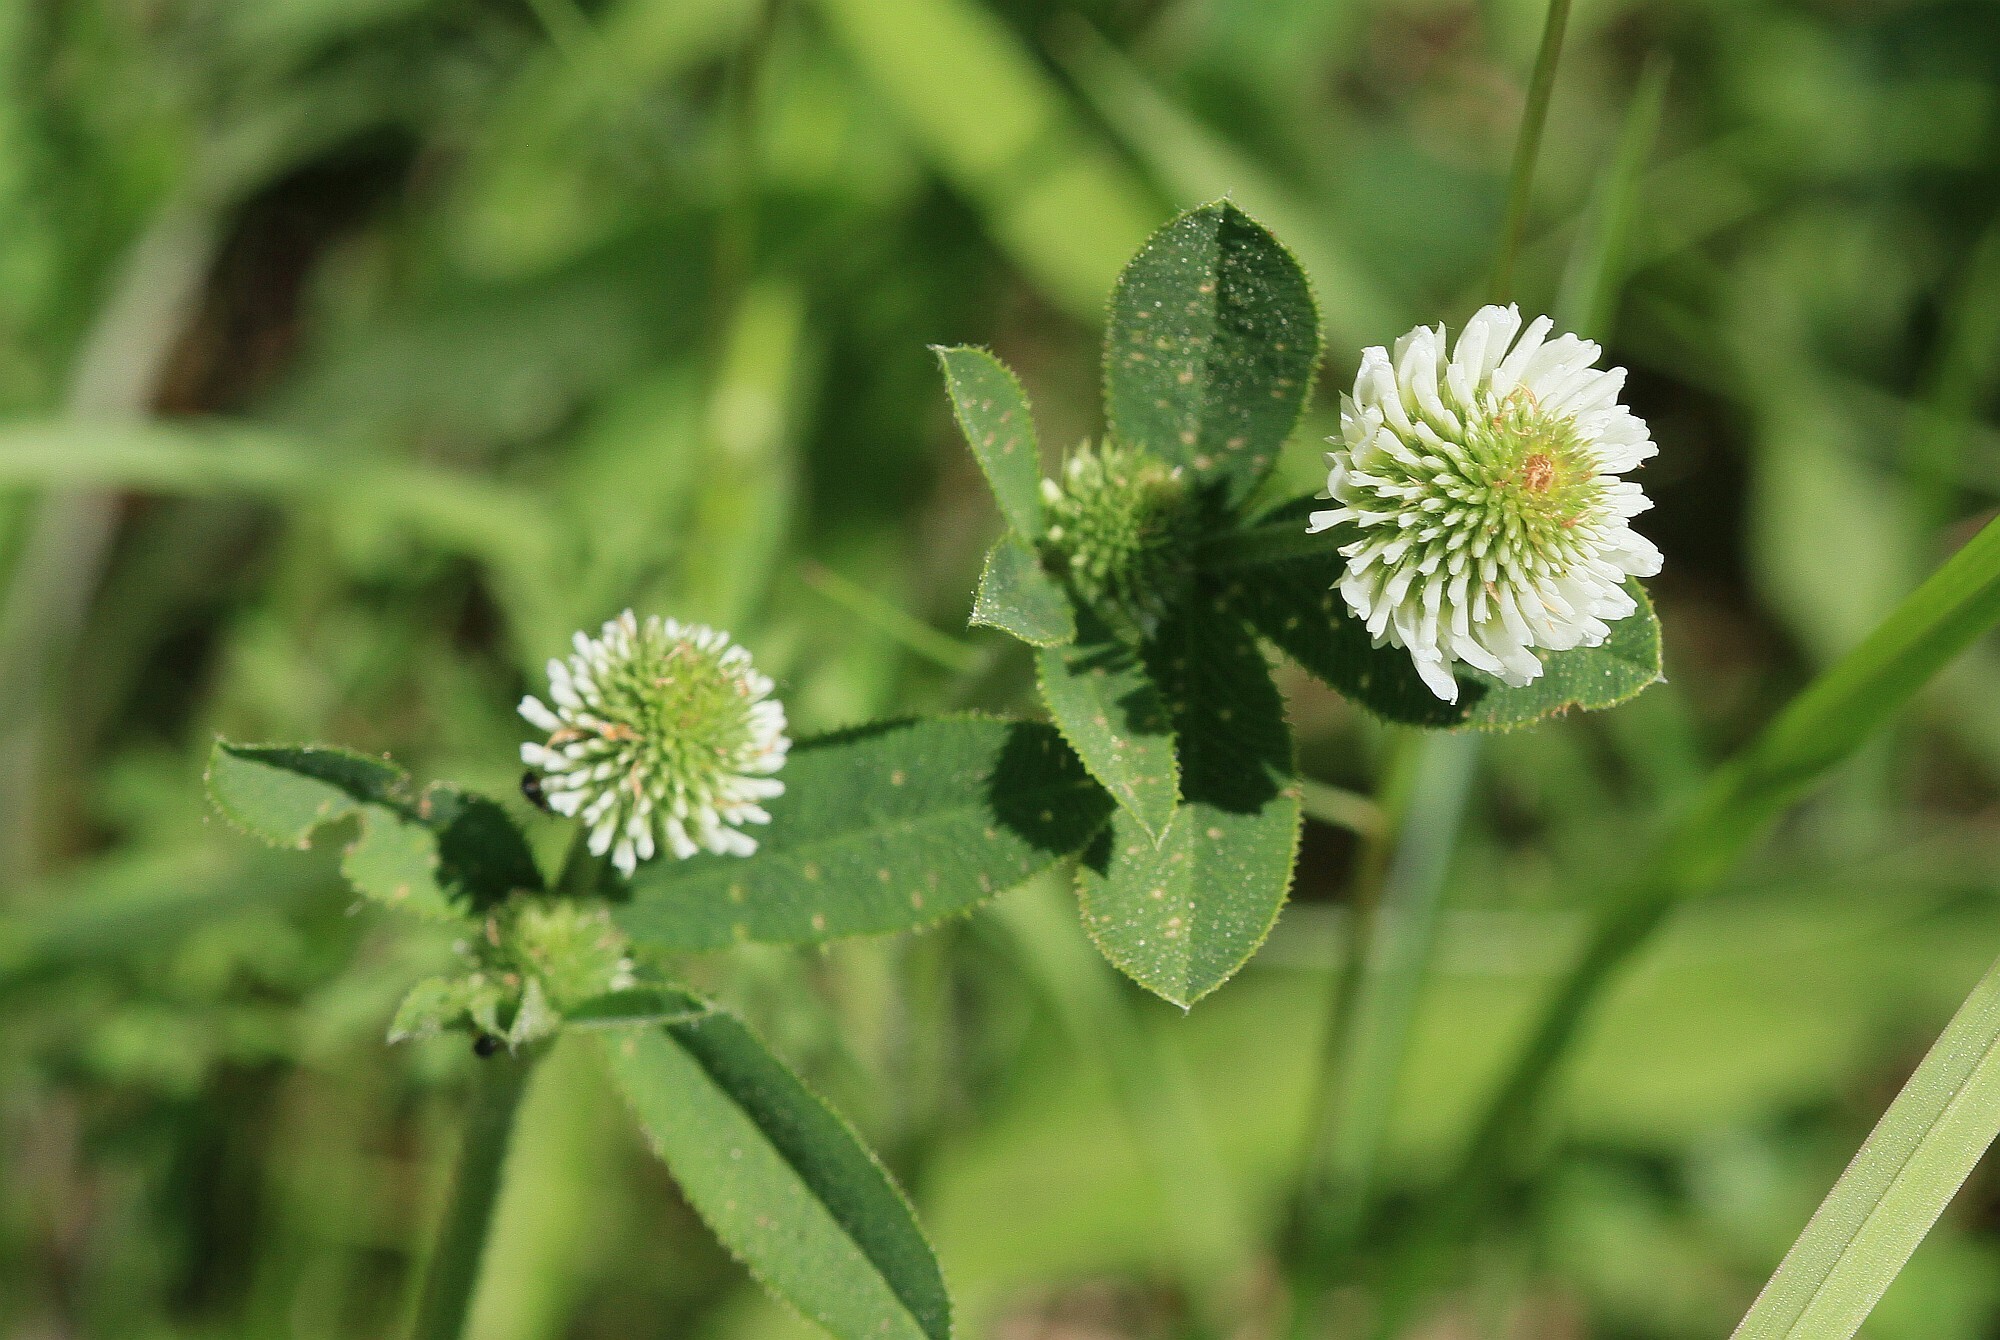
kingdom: Plantae
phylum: Tracheophyta
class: Magnoliopsida
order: Fabales
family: Fabaceae
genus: Trifolium
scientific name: Trifolium montanum
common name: Mountain clover
